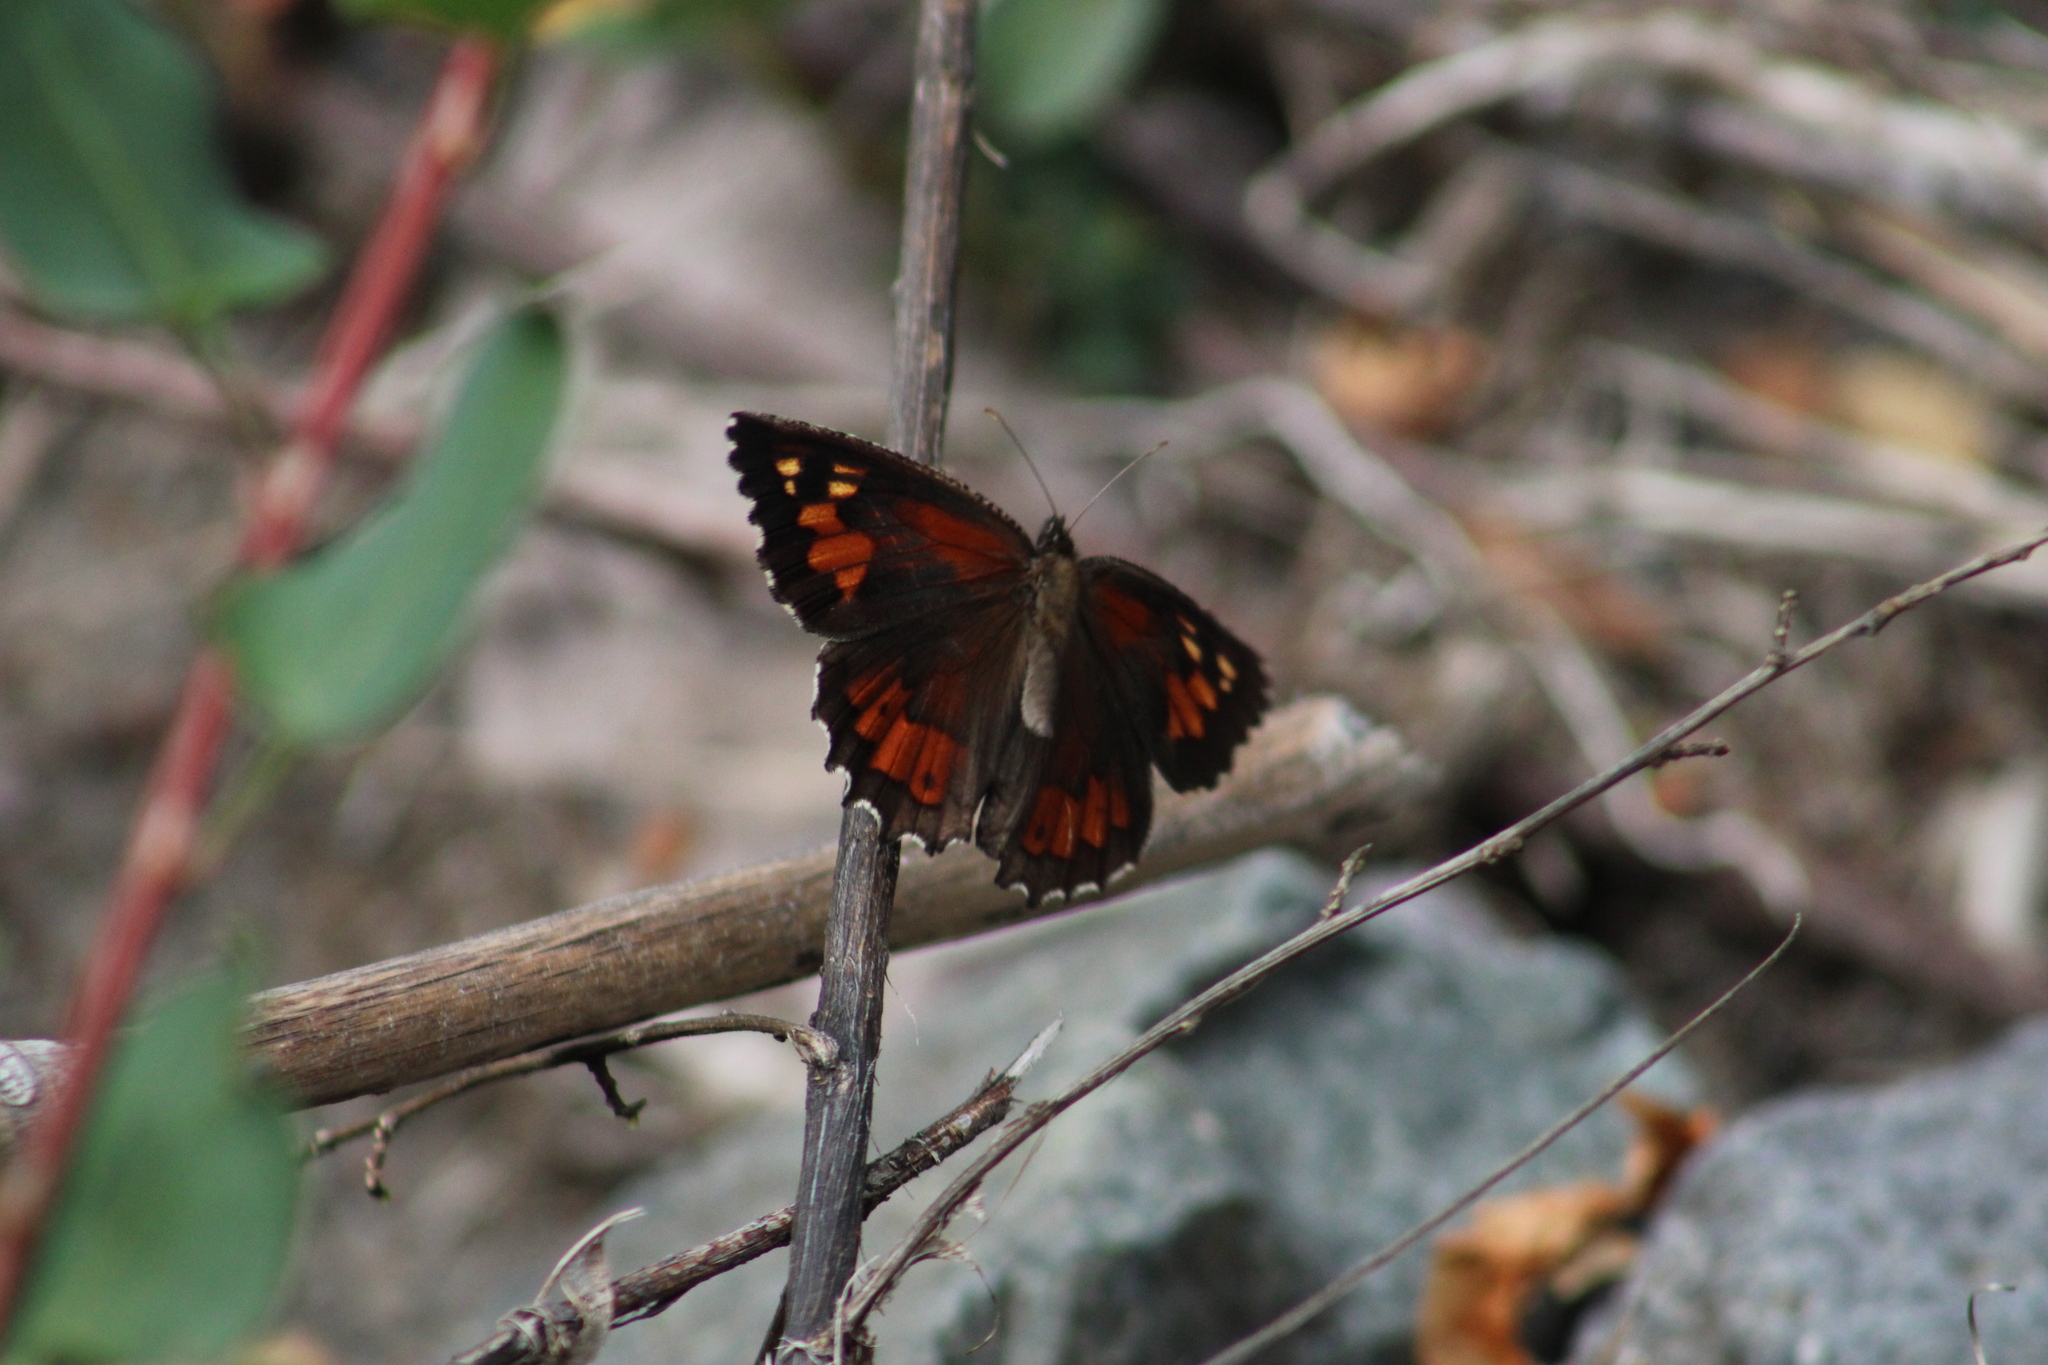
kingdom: Animalia
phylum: Arthropoda
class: Insecta
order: Lepidoptera
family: Nymphalidae
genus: Elina
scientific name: Elina montroli
